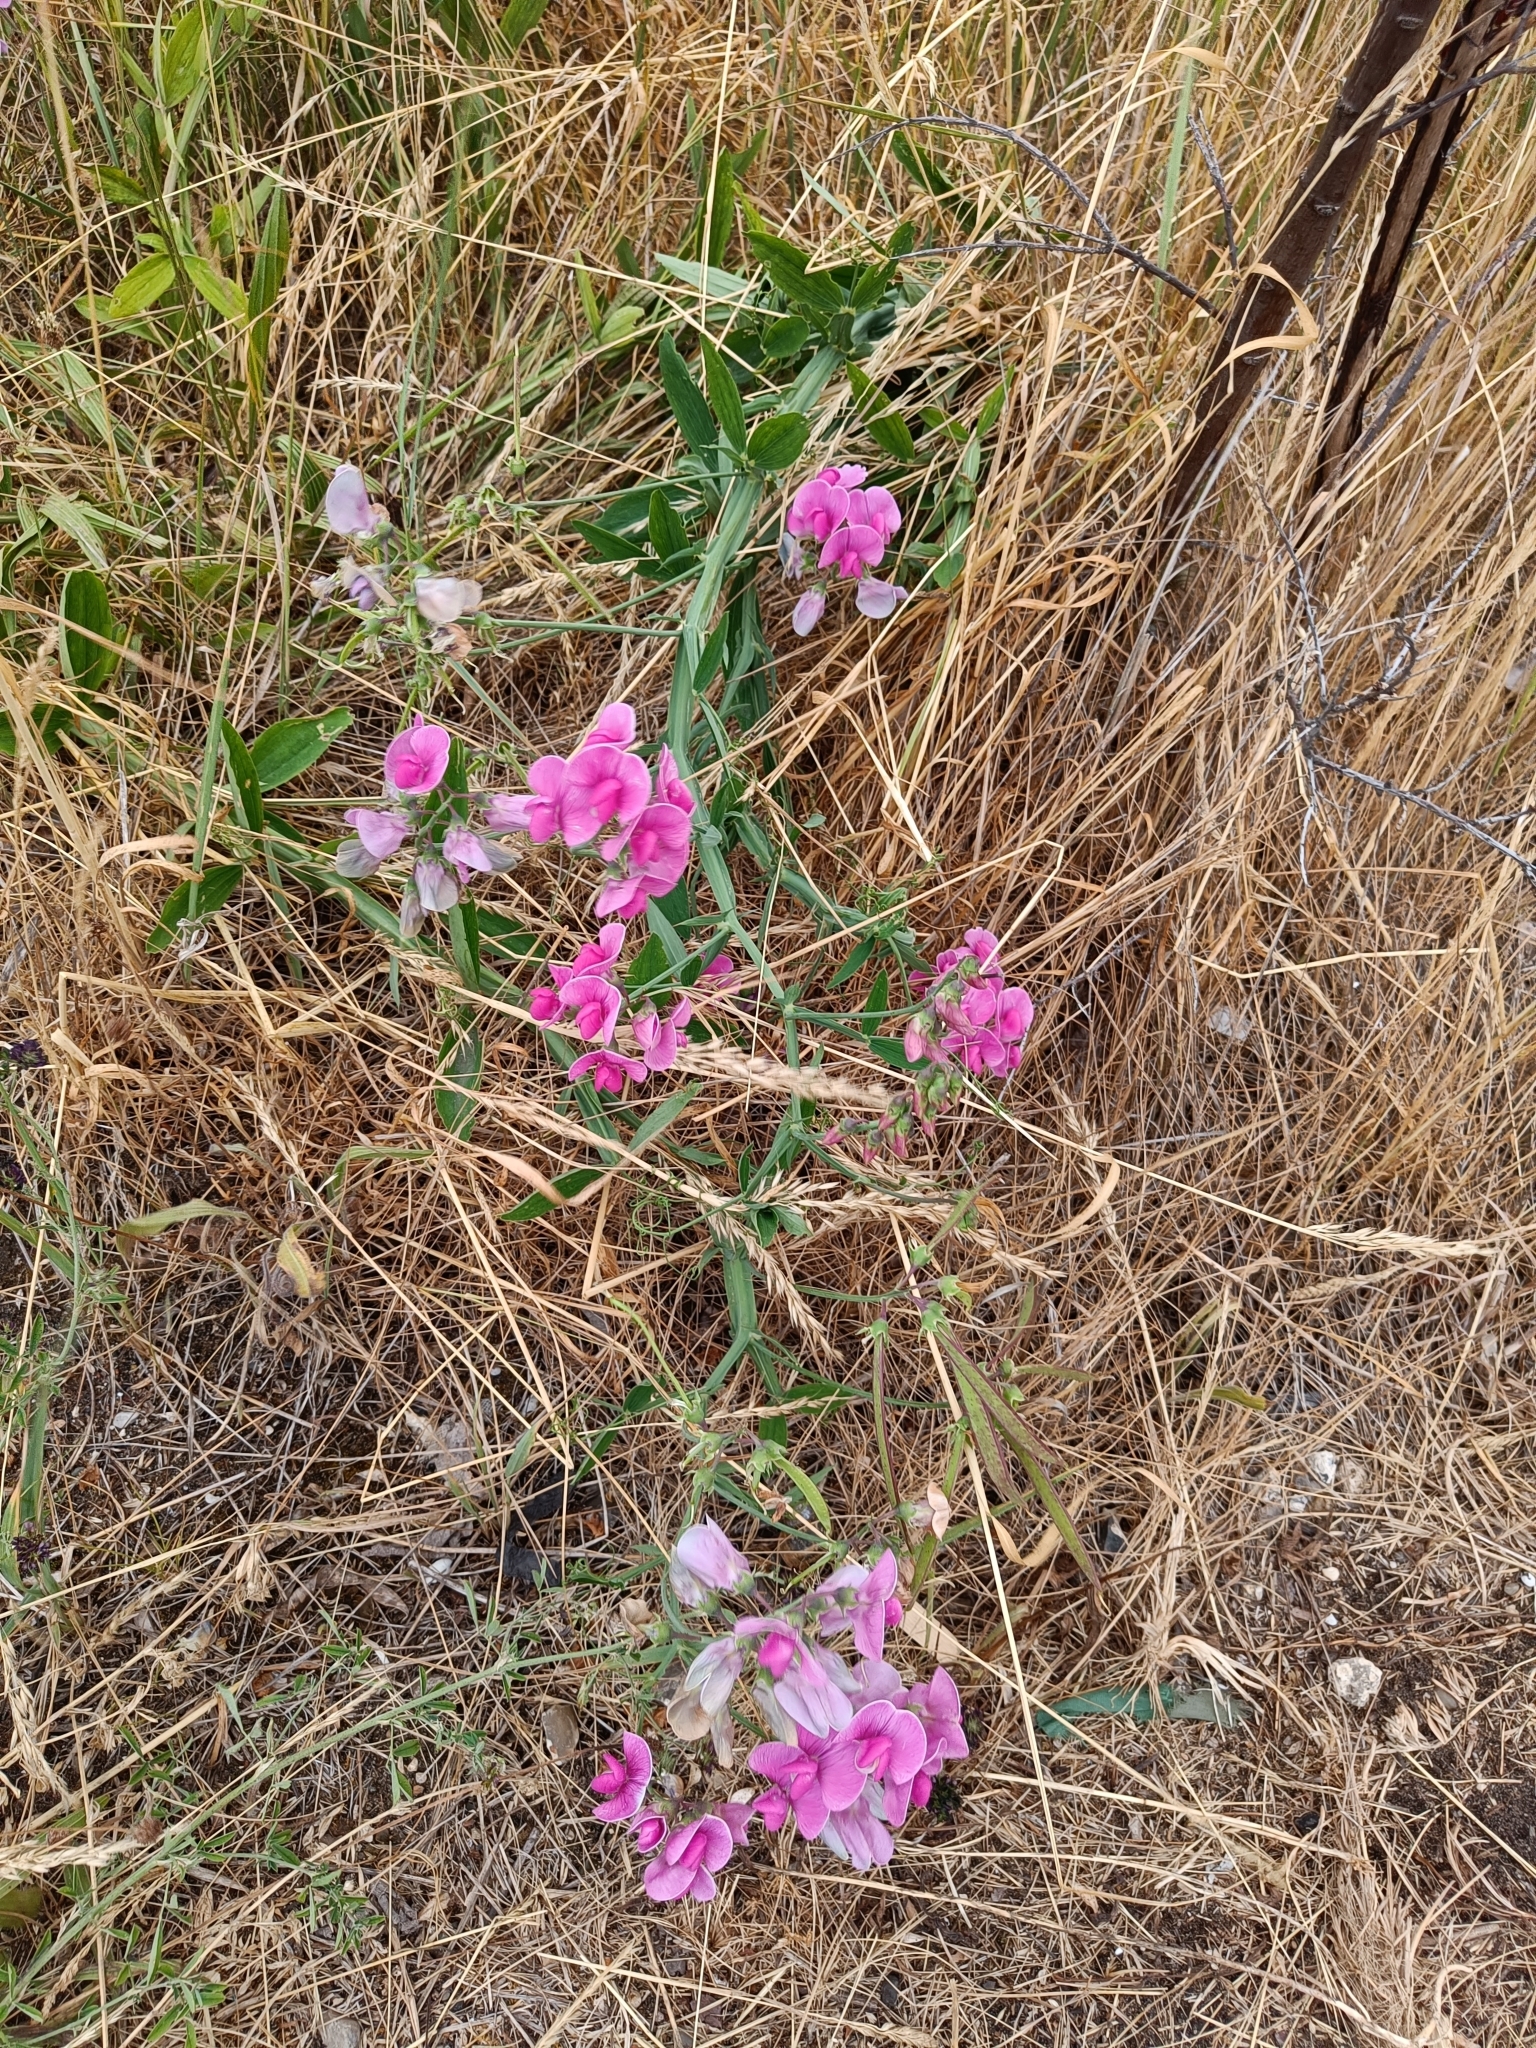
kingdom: Plantae
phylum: Tracheophyta
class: Magnoliopsida
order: Fabales
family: Fabaceae
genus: Lathyrus
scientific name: Lathyrus latifolius
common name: Perennial pea
